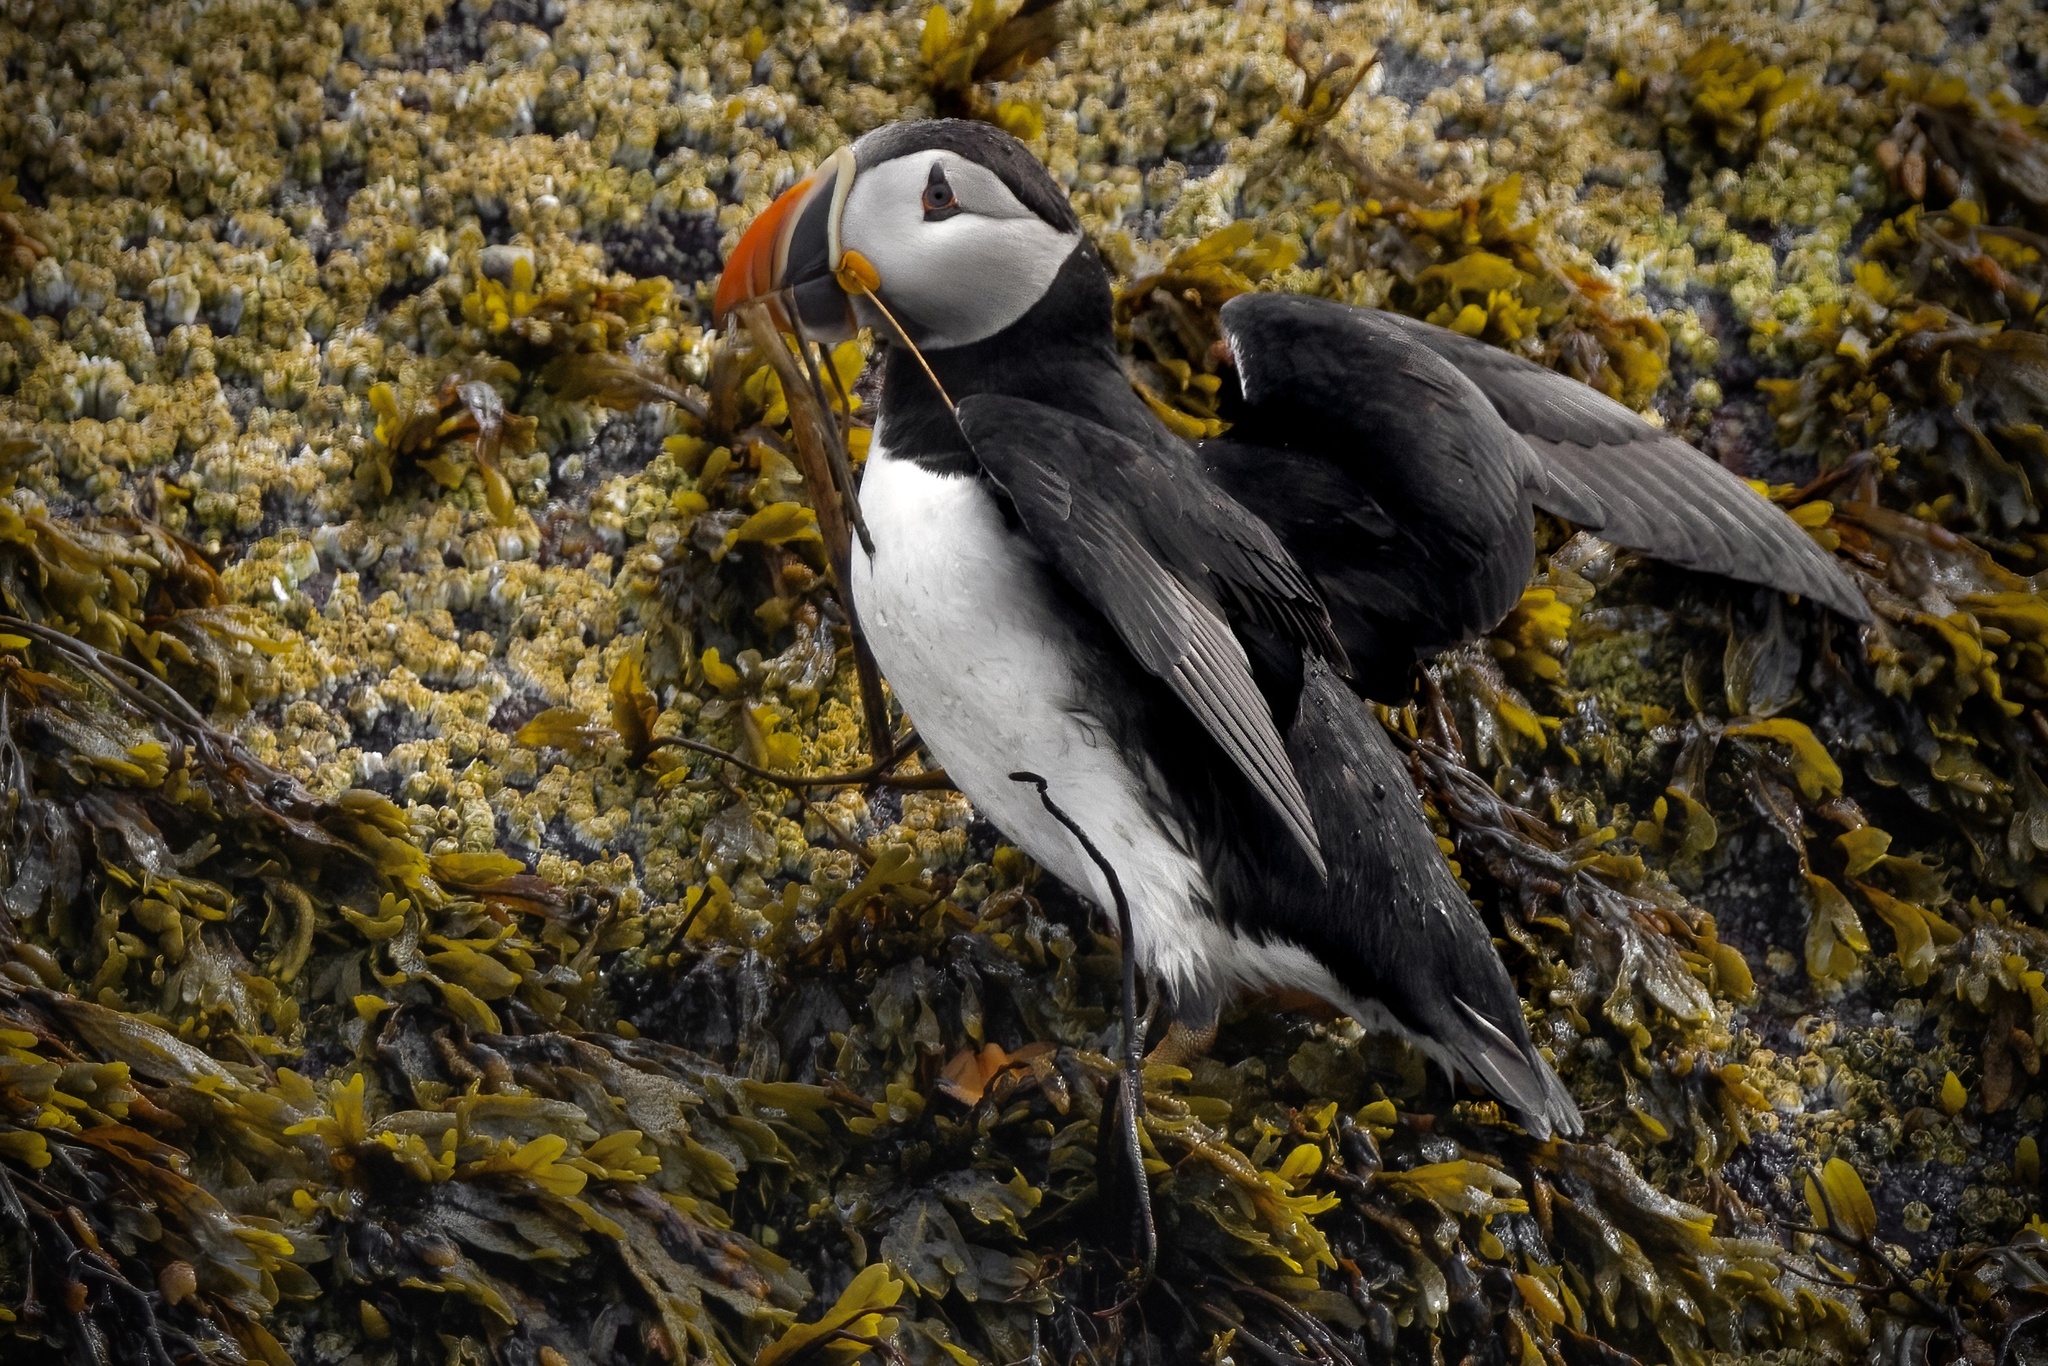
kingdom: Animalia
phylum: Chordata
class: Aves
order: Charadriiformes
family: Alcidae
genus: Fratercula
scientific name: Fratercula arctica
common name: Atlantic puffin
